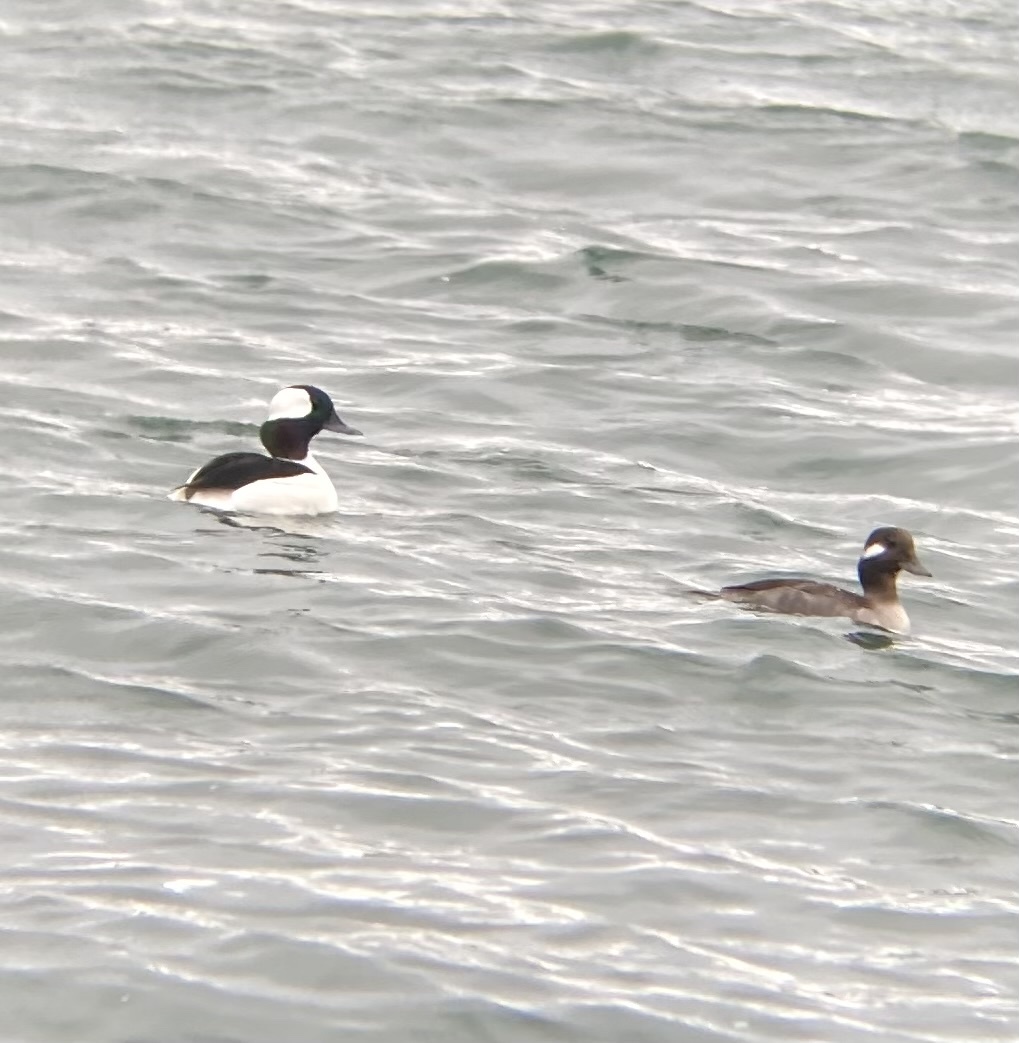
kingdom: Animalia
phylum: Chordata
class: Aves
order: Anseriformes
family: Anatidae
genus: Bucephala
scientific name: Bucephala albeola
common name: Bufflehead
